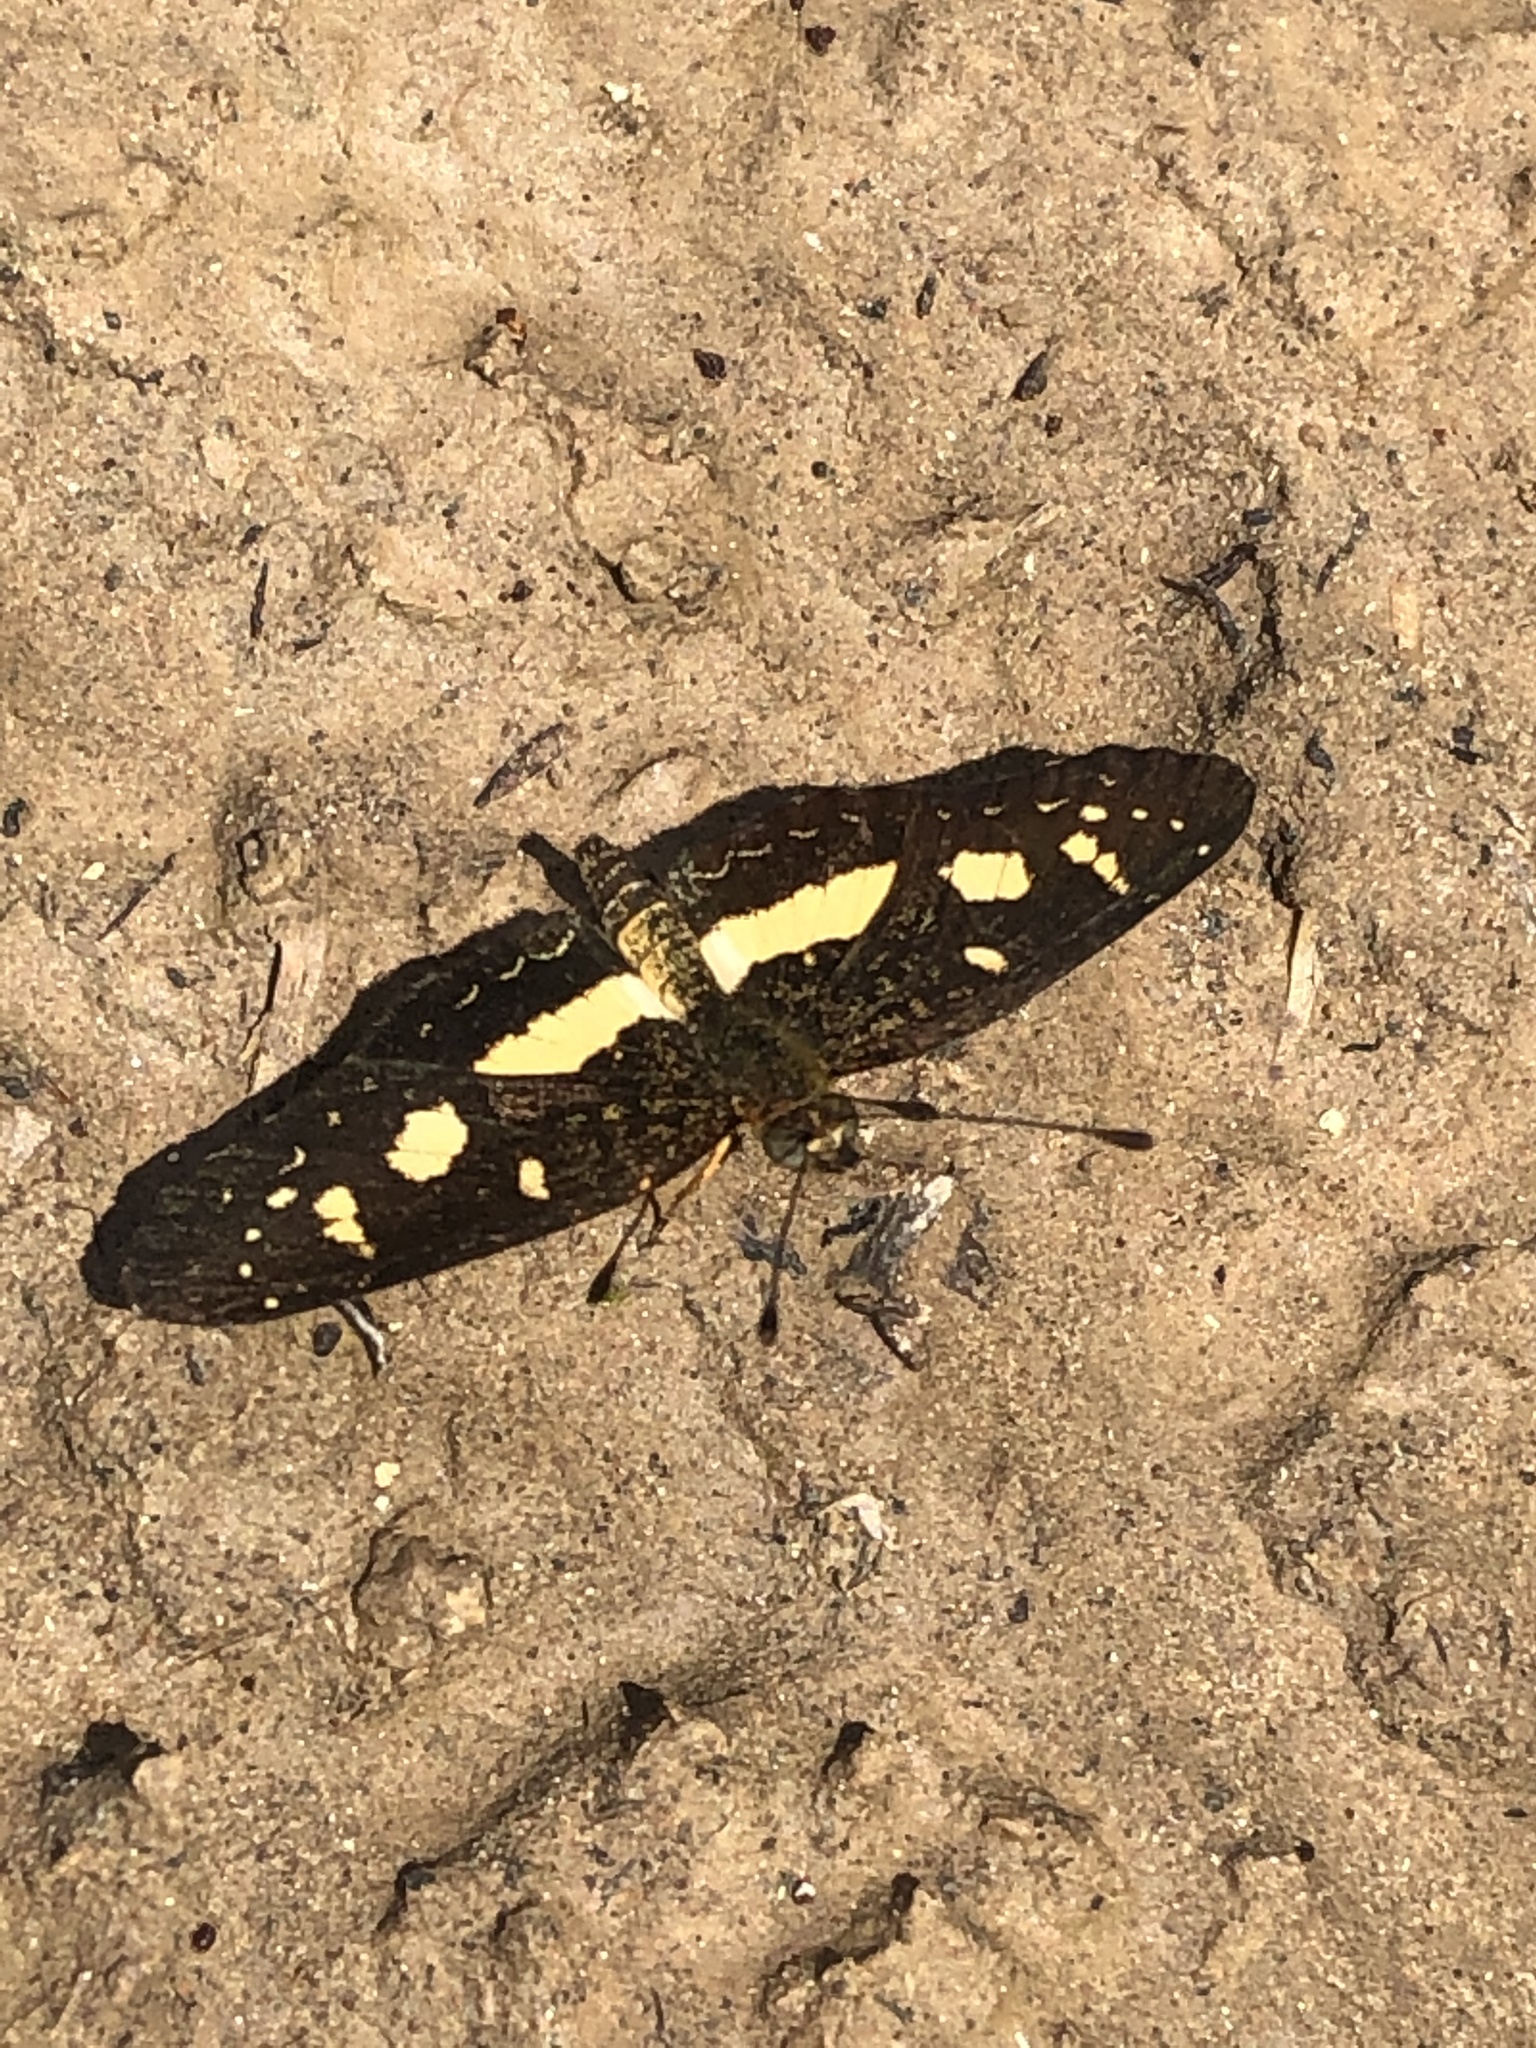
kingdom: Animalia
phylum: Arthropoda
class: Insecta
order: Lepidoptera
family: Nymphalidae
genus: Castilia
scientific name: Castilia angusta
